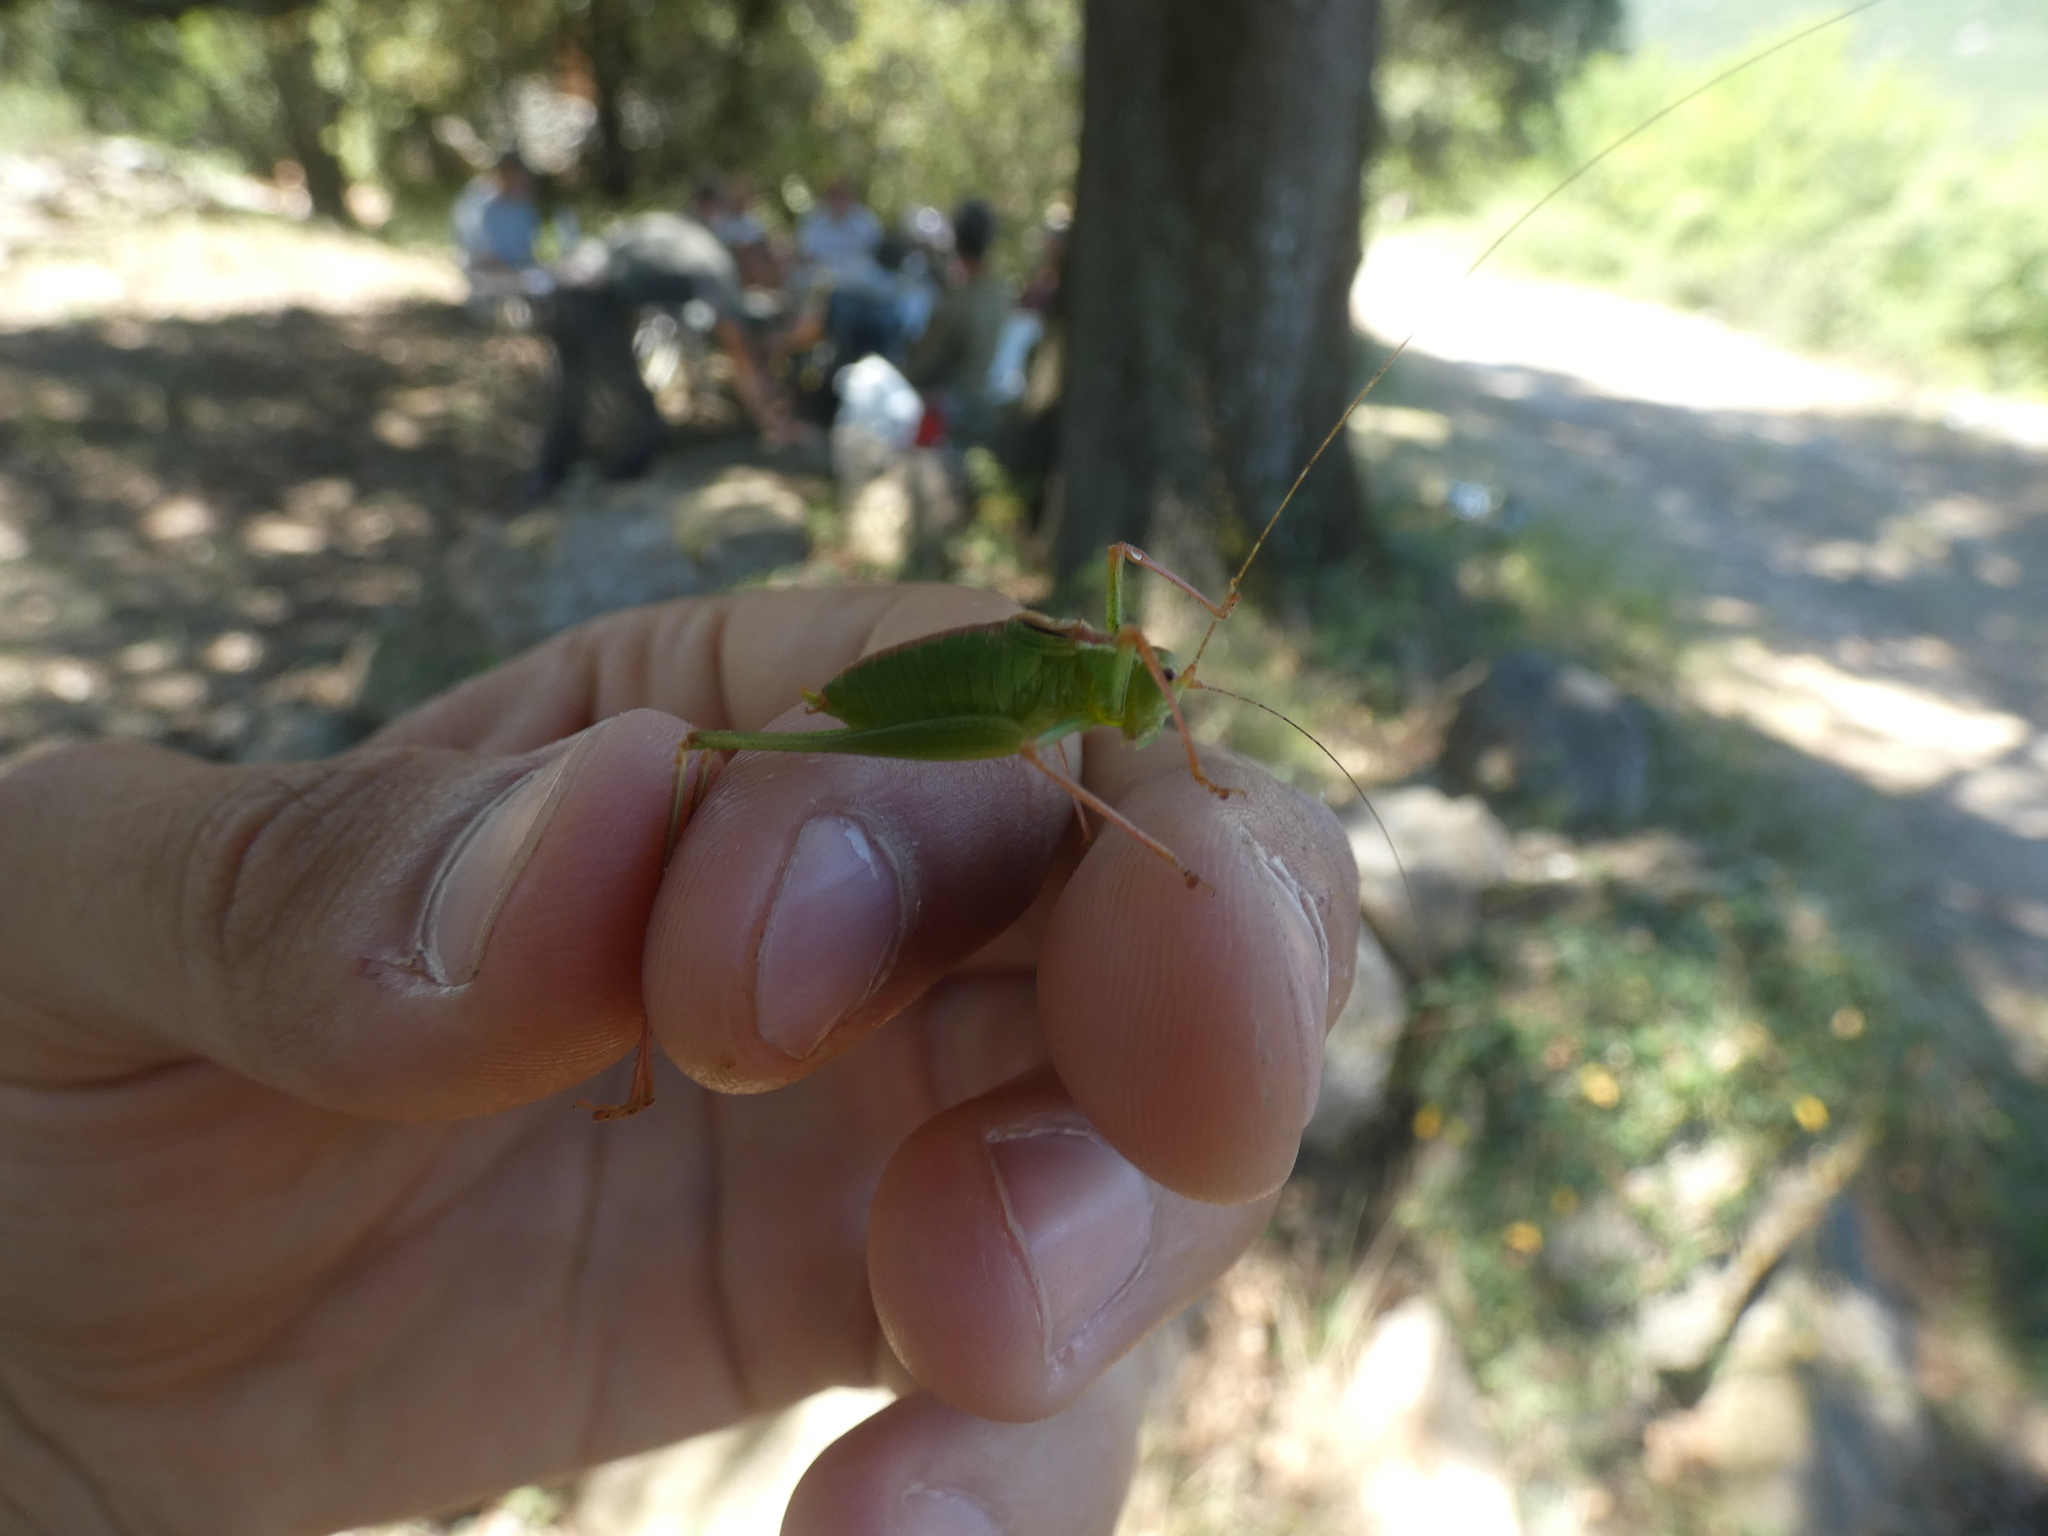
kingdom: Animalia
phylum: Arthropoda
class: Insecta
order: Orthoptera
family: Tettigoniidae
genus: Leptophyes
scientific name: Leptophyes punctatissima
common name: Speckled bush-cricket
